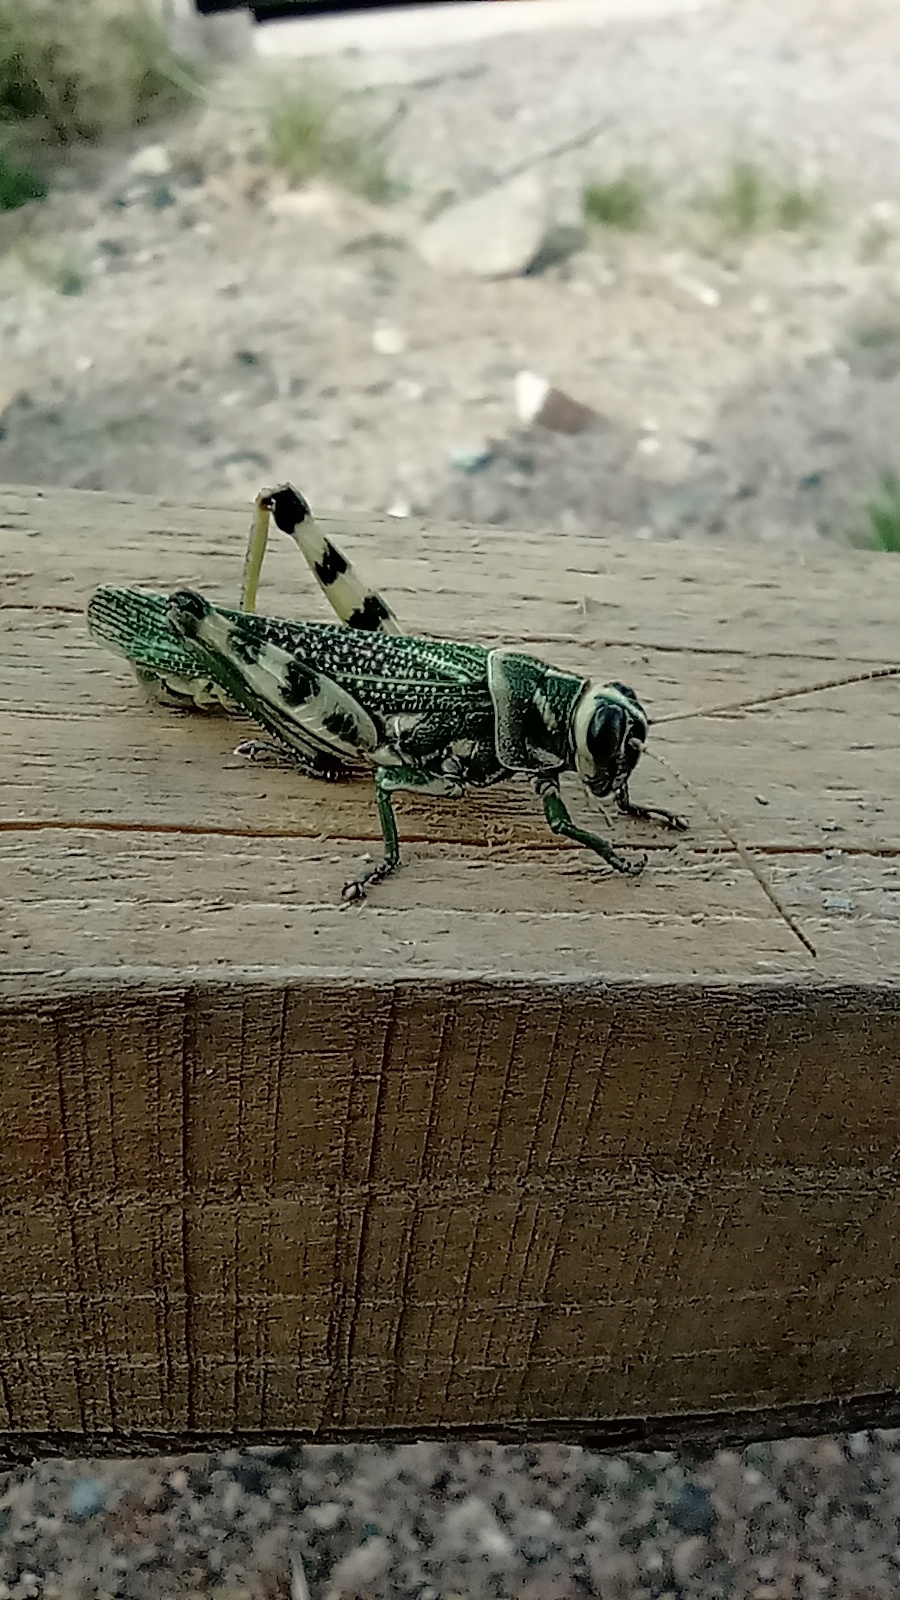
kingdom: Animalia
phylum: Arthropoda
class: Insecta
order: Orthoptera
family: Romaleidae
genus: Diponthus
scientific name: Diponthus argentinus
